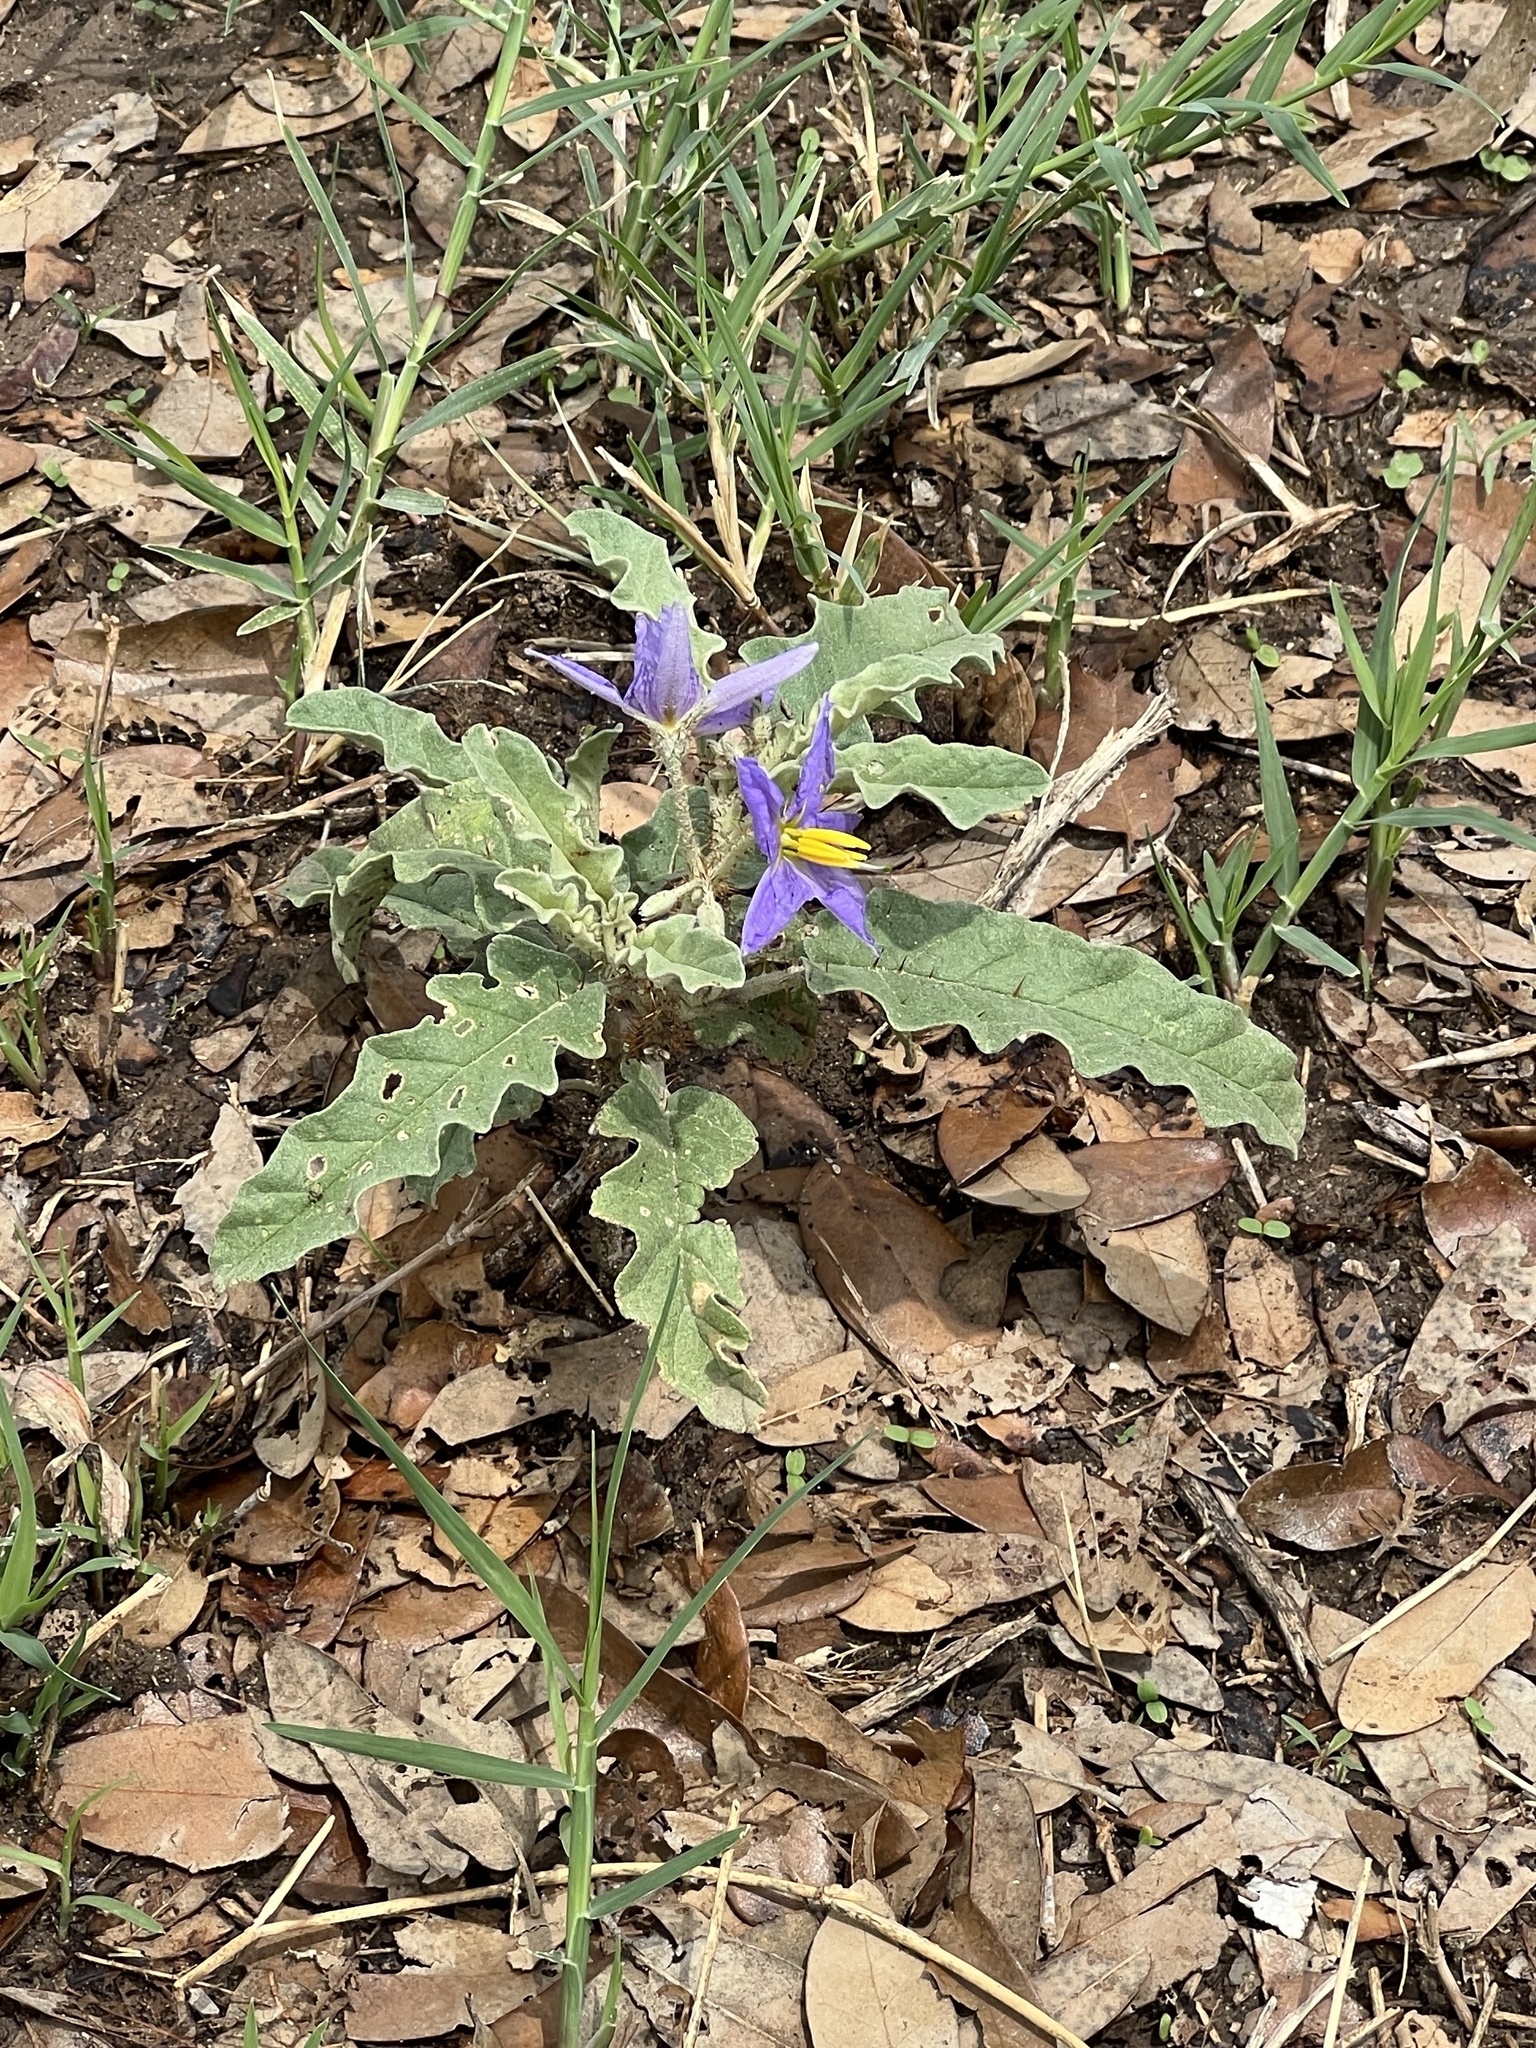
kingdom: Plantae
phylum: Tracheophyta
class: Magnoliopsida
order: Solanales
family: Solanaceae
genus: Solanum
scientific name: Solanum elaeagnifolium
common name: Silverleaf nightshade
